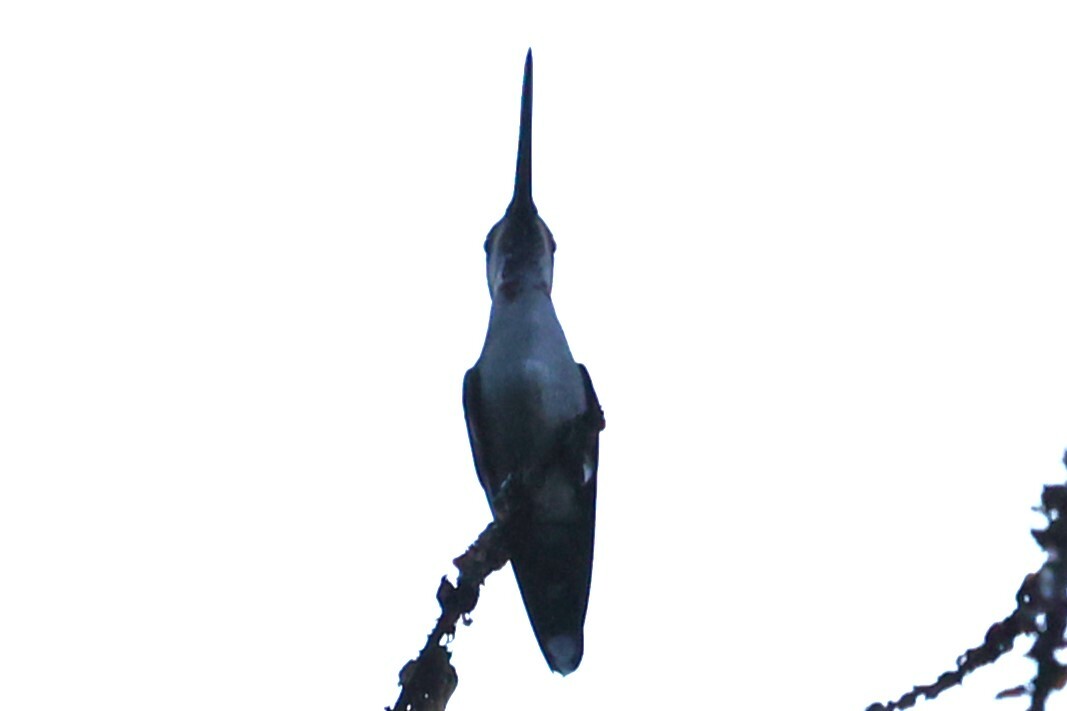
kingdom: Animalia
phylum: Chordata
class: Aves
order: Apodiformes
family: Trochilidae
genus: Heliomaster
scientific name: Heliomaster longirostris
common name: Long-billed starthroat
